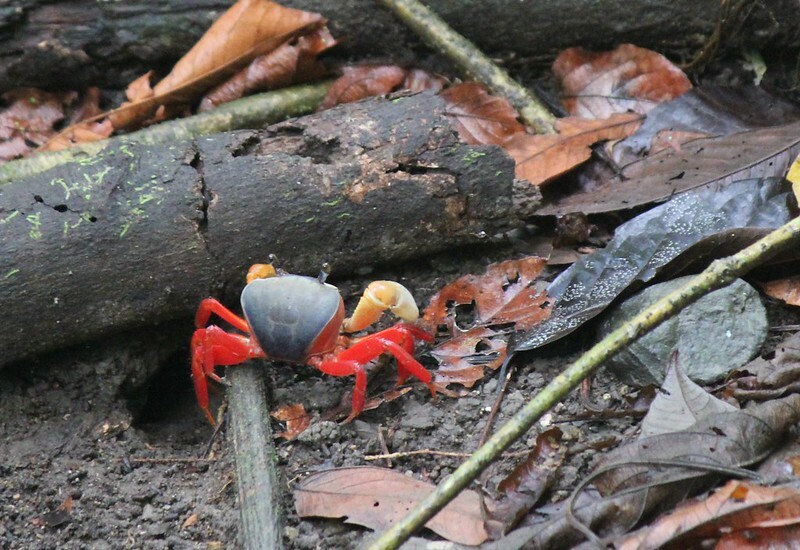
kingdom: Animalia
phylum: Arthropoda
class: Malacostraca
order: Decapoda
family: Gecarcinidae
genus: Cardisoma
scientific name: Cardisoma crassum
